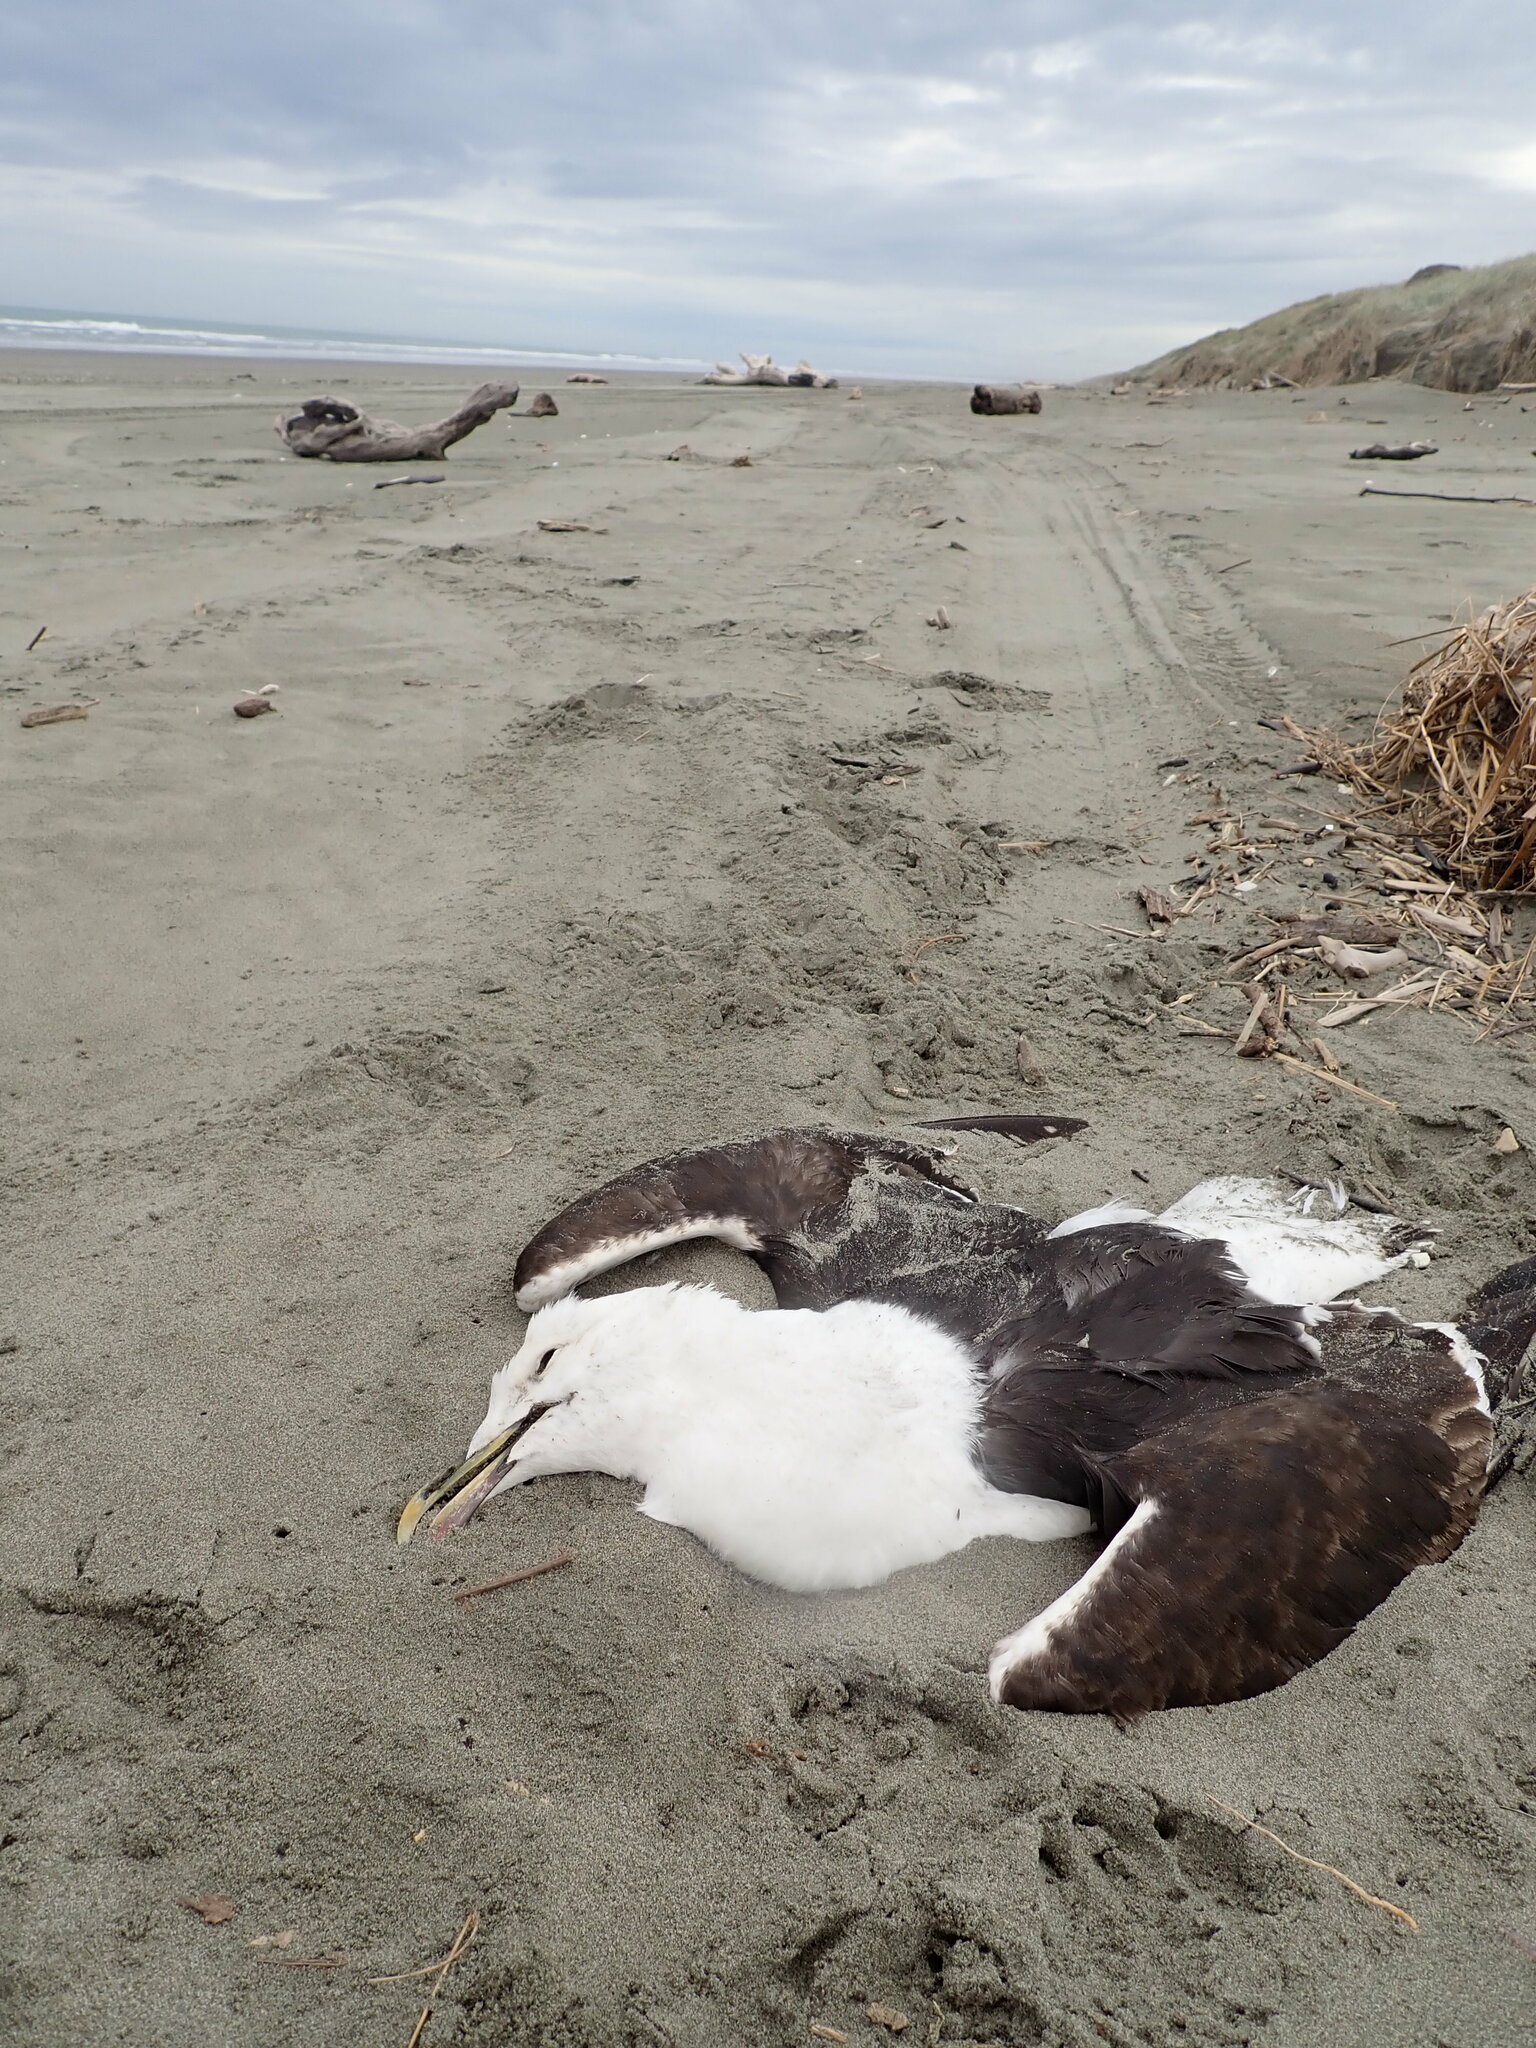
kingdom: Animalia
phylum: Chordata
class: Aves
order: Charadriiformes
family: Laridae
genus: Larus
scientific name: Larus dominicanus
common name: Kelp gull
